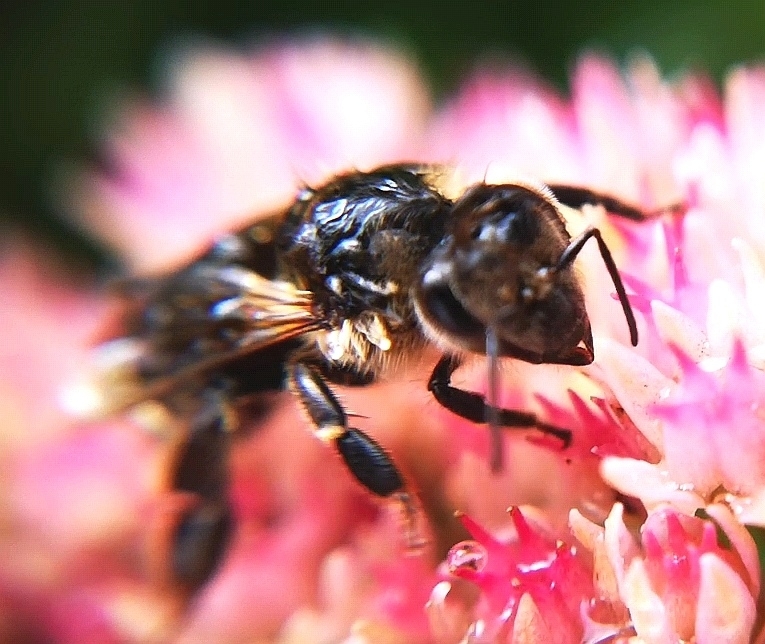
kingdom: Animalia
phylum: Arthropoda
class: Insecta
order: Hymenoptera
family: Apidae
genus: Apis
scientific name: Apis mellifera
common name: Honey bee
